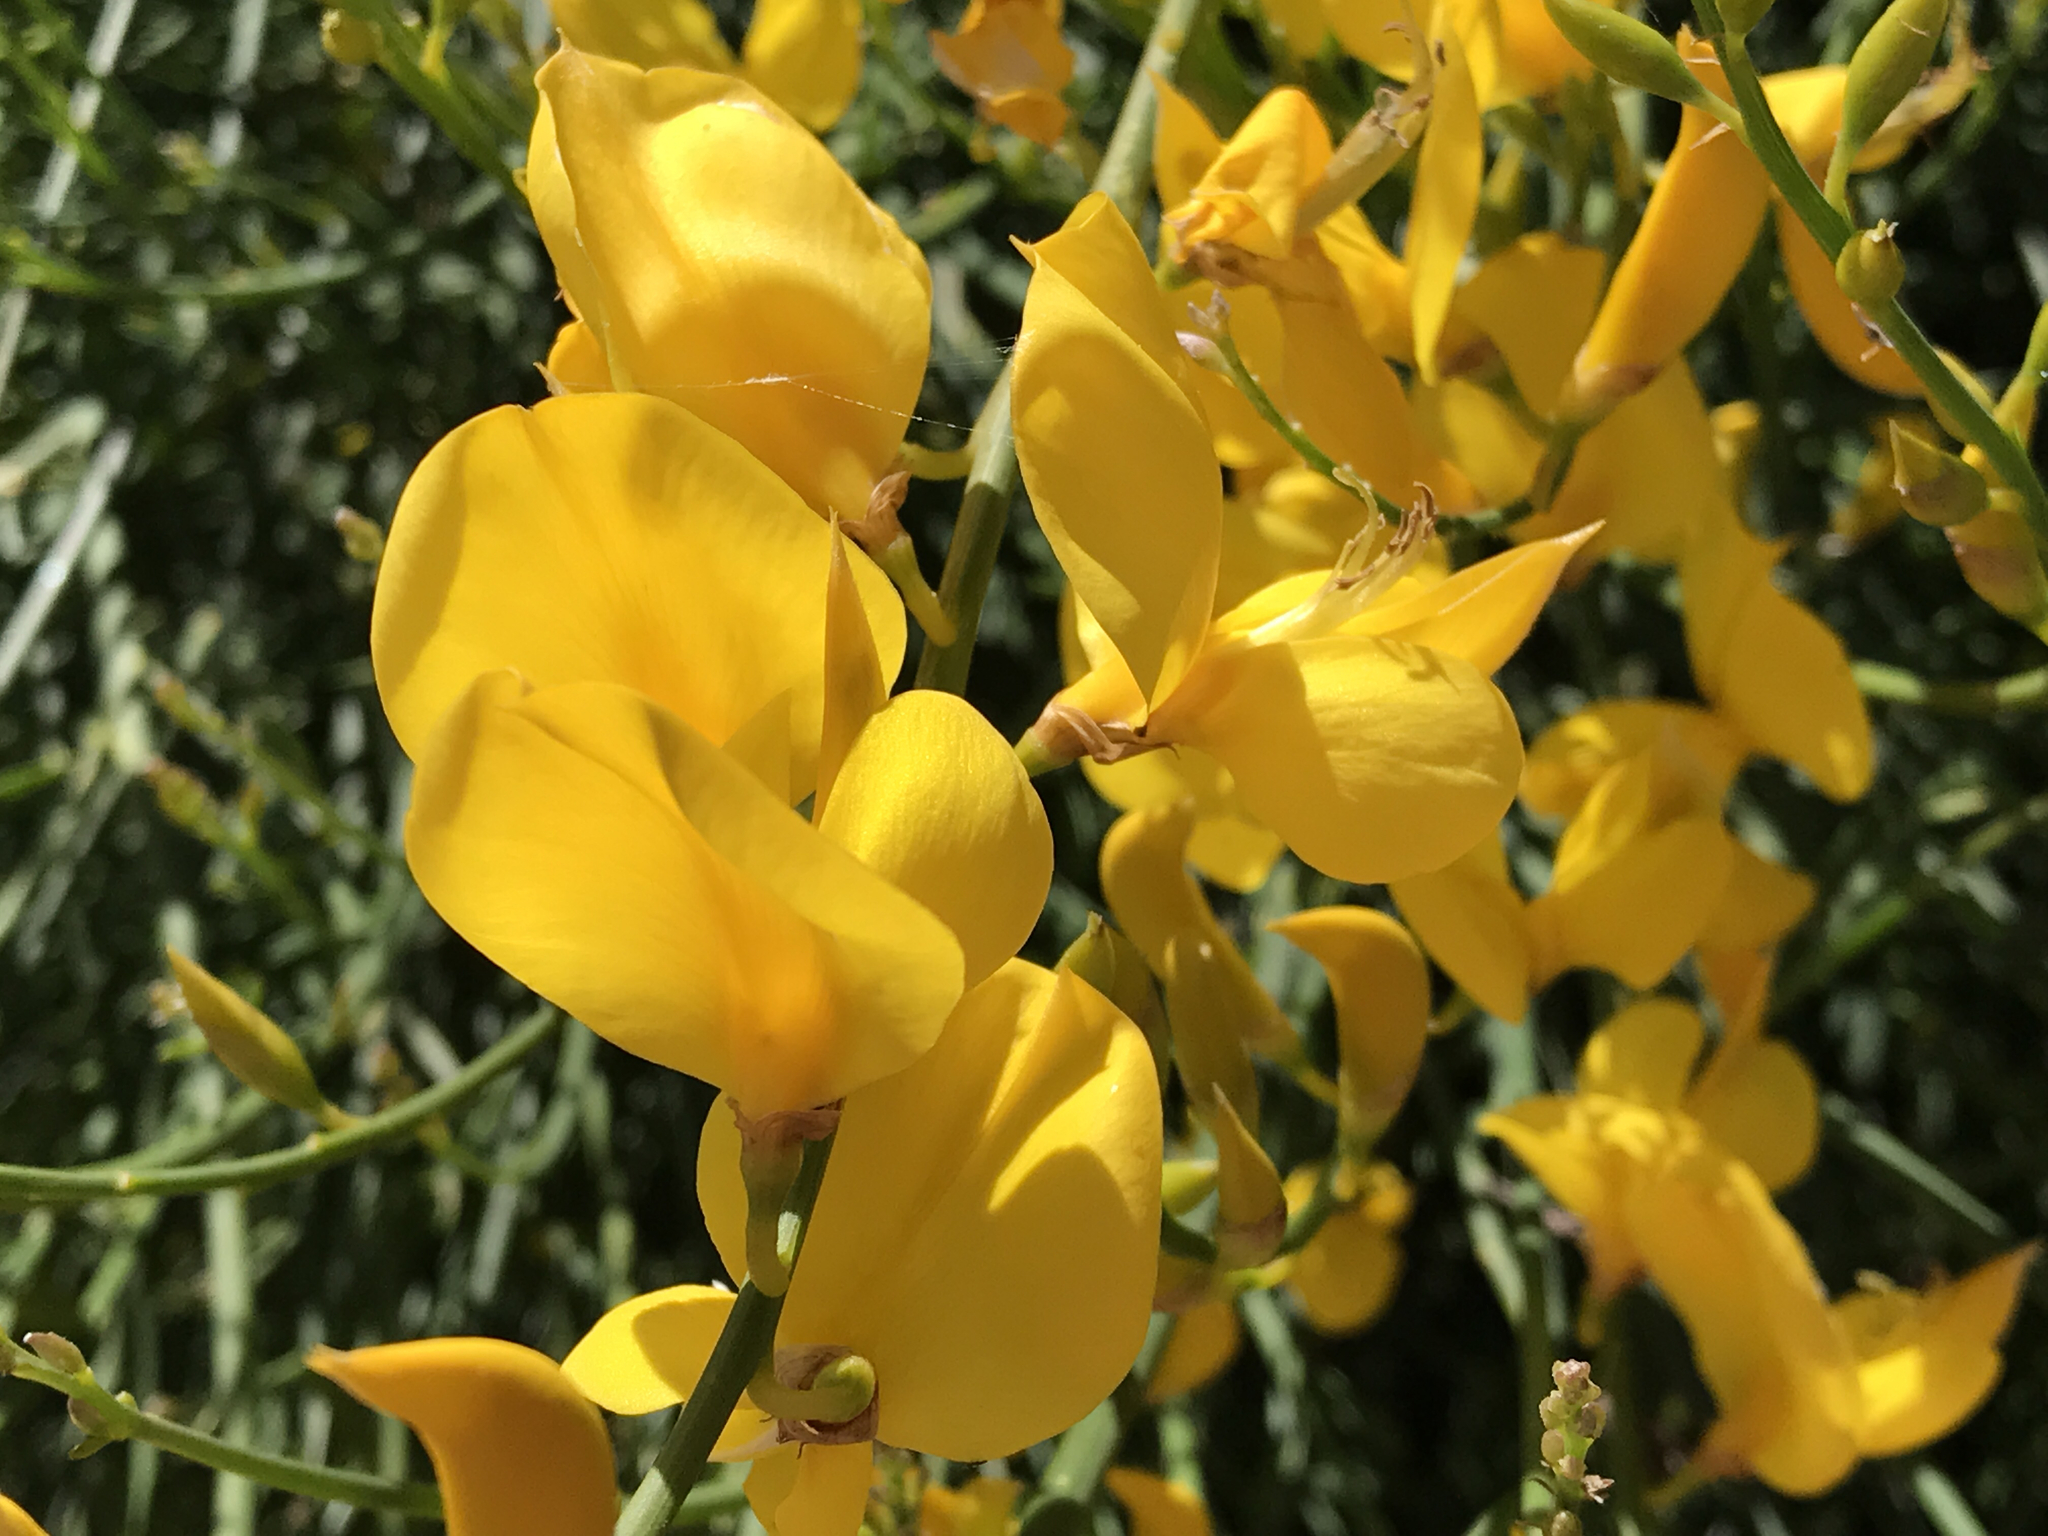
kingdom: Plantae
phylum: Tracheophyta
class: Magnoliopsida
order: Fabales
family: Fabaceae
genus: Spartium
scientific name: Spartium junceum
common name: Spanish broom
